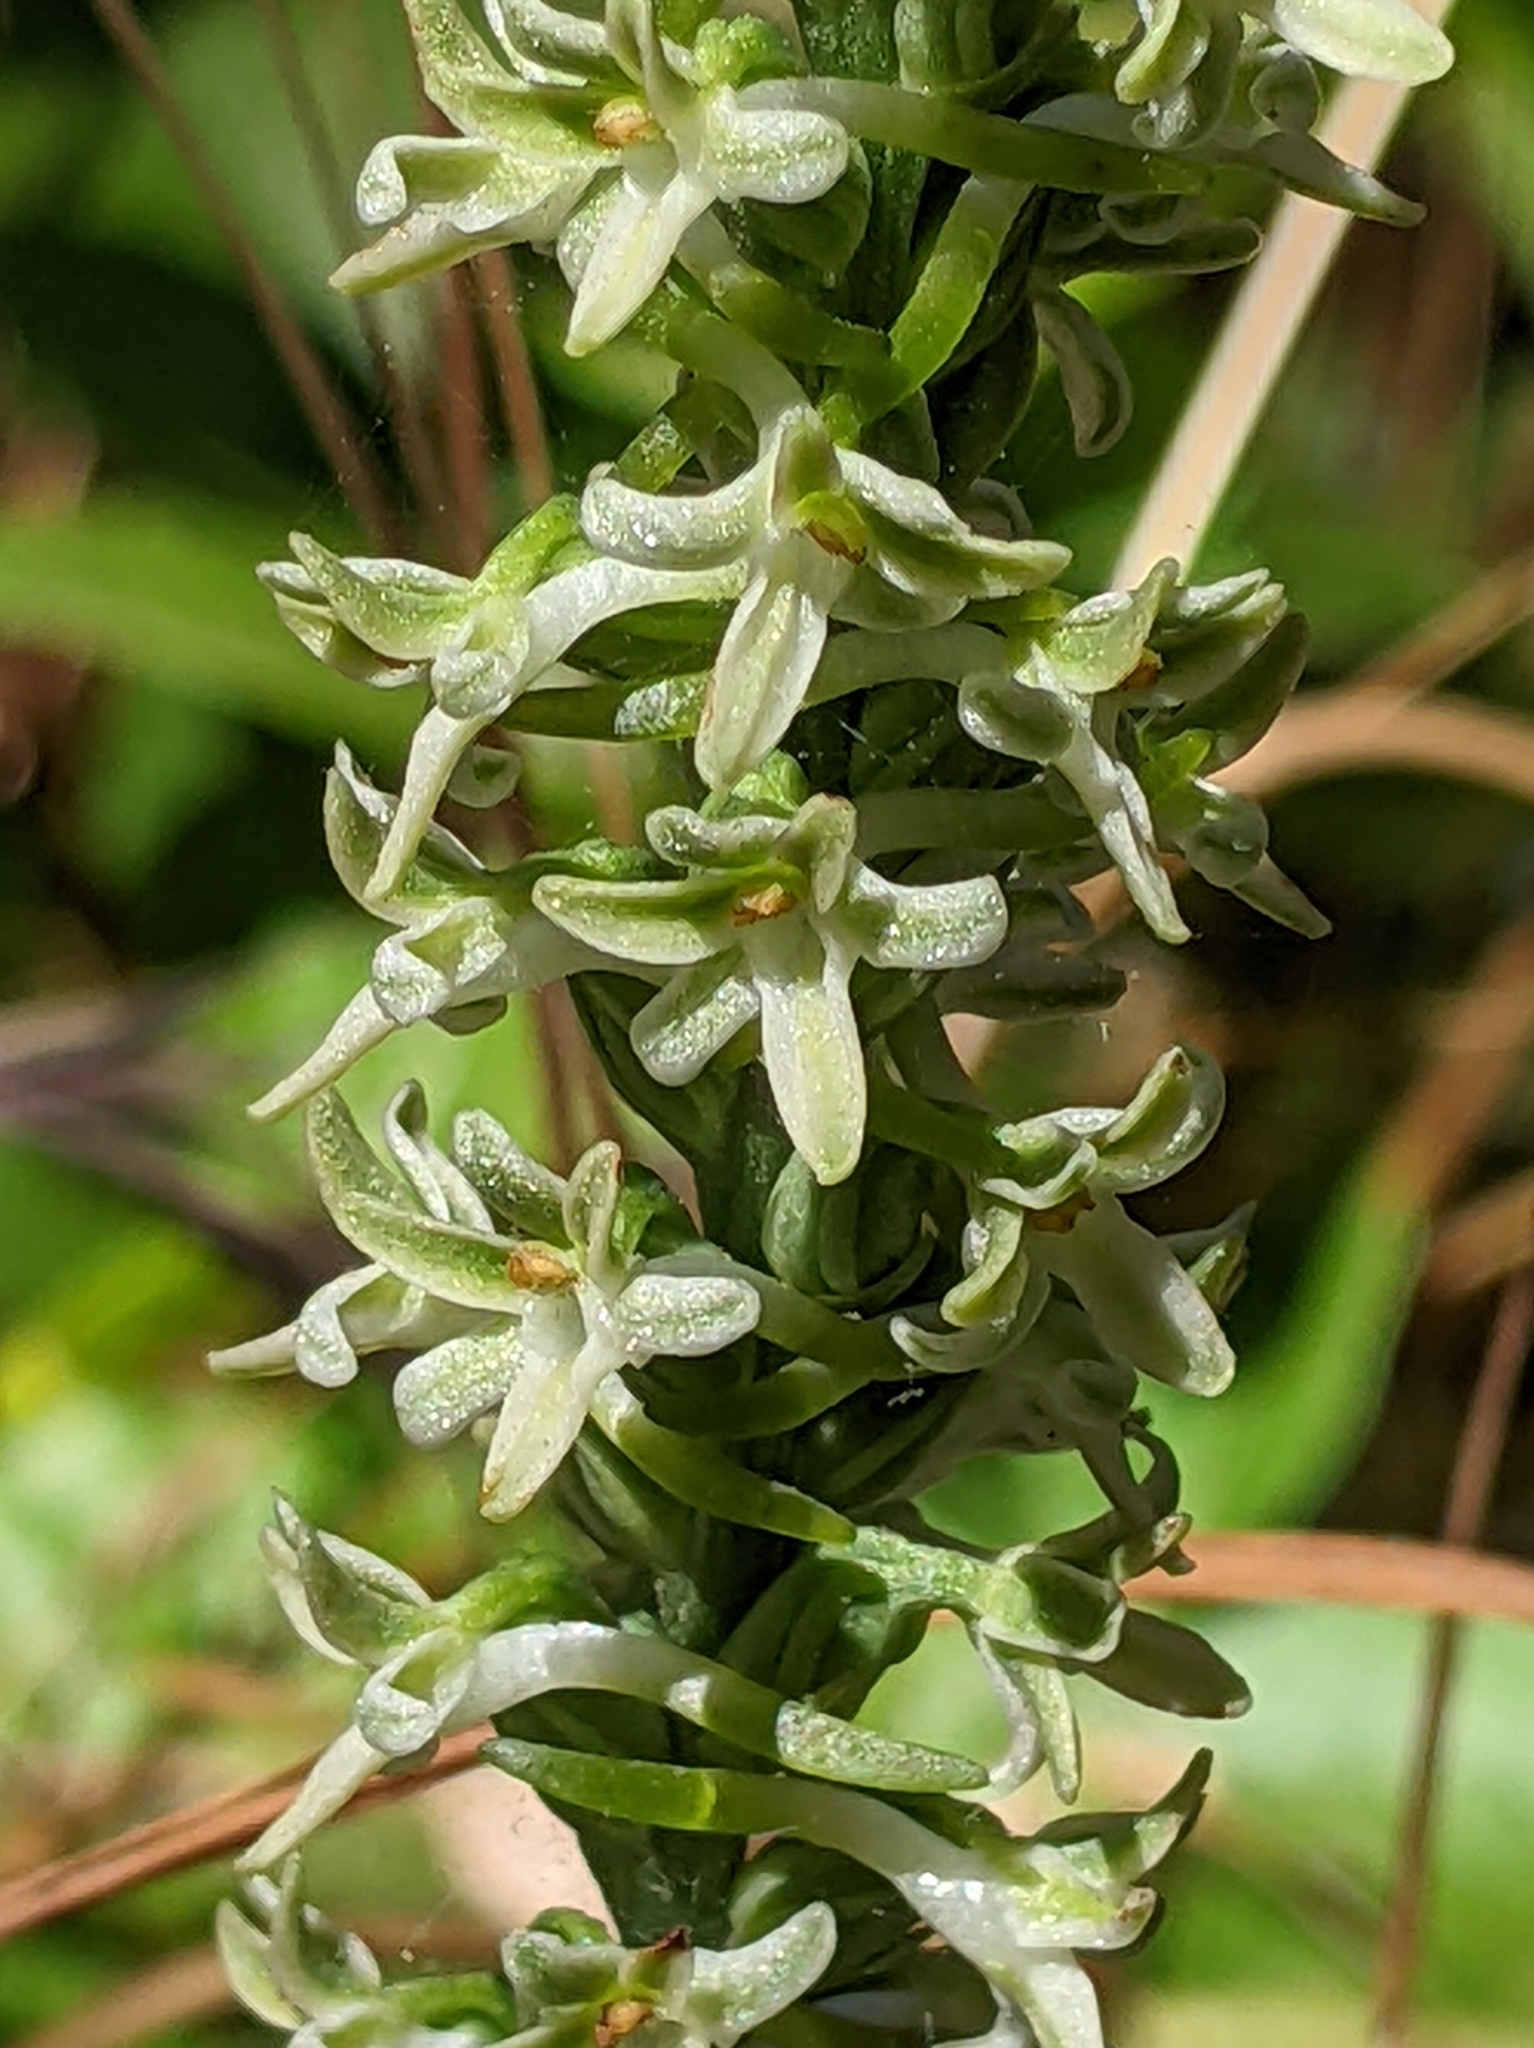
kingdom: Plantae
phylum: Tracheophyta
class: Liliopsida
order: Asparagales
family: Orchidaceae
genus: Platanthera
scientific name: Platanthera transversa
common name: Royal rein orchid
